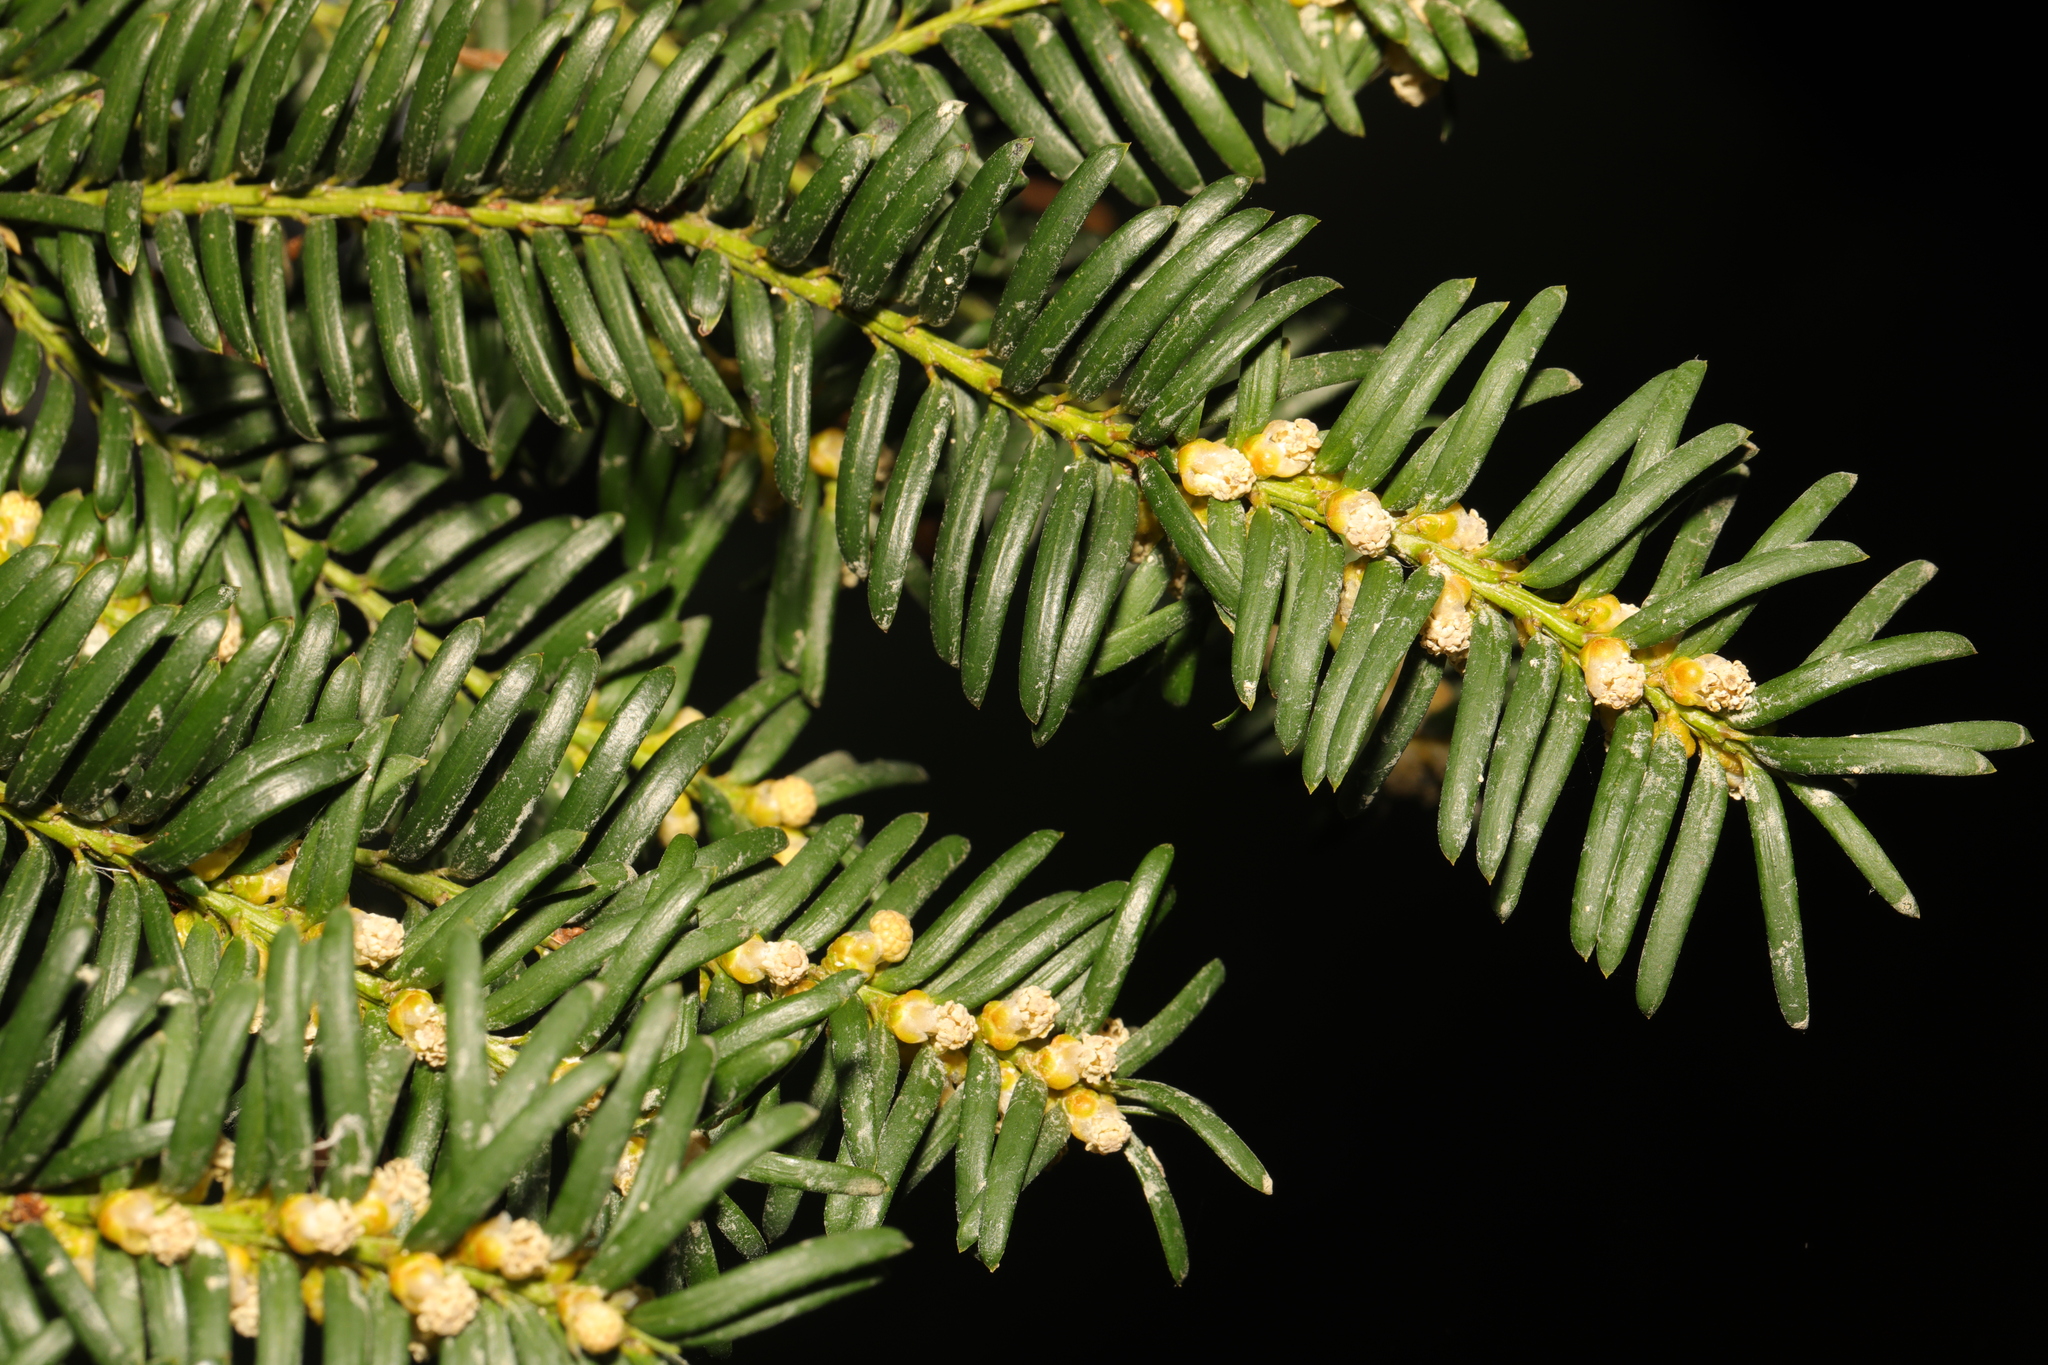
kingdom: Plantae
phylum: Tracheophyta
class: Pinopsida
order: Pinales
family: Taxaceae
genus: Taxus
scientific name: Taxus baccata
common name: Yew
